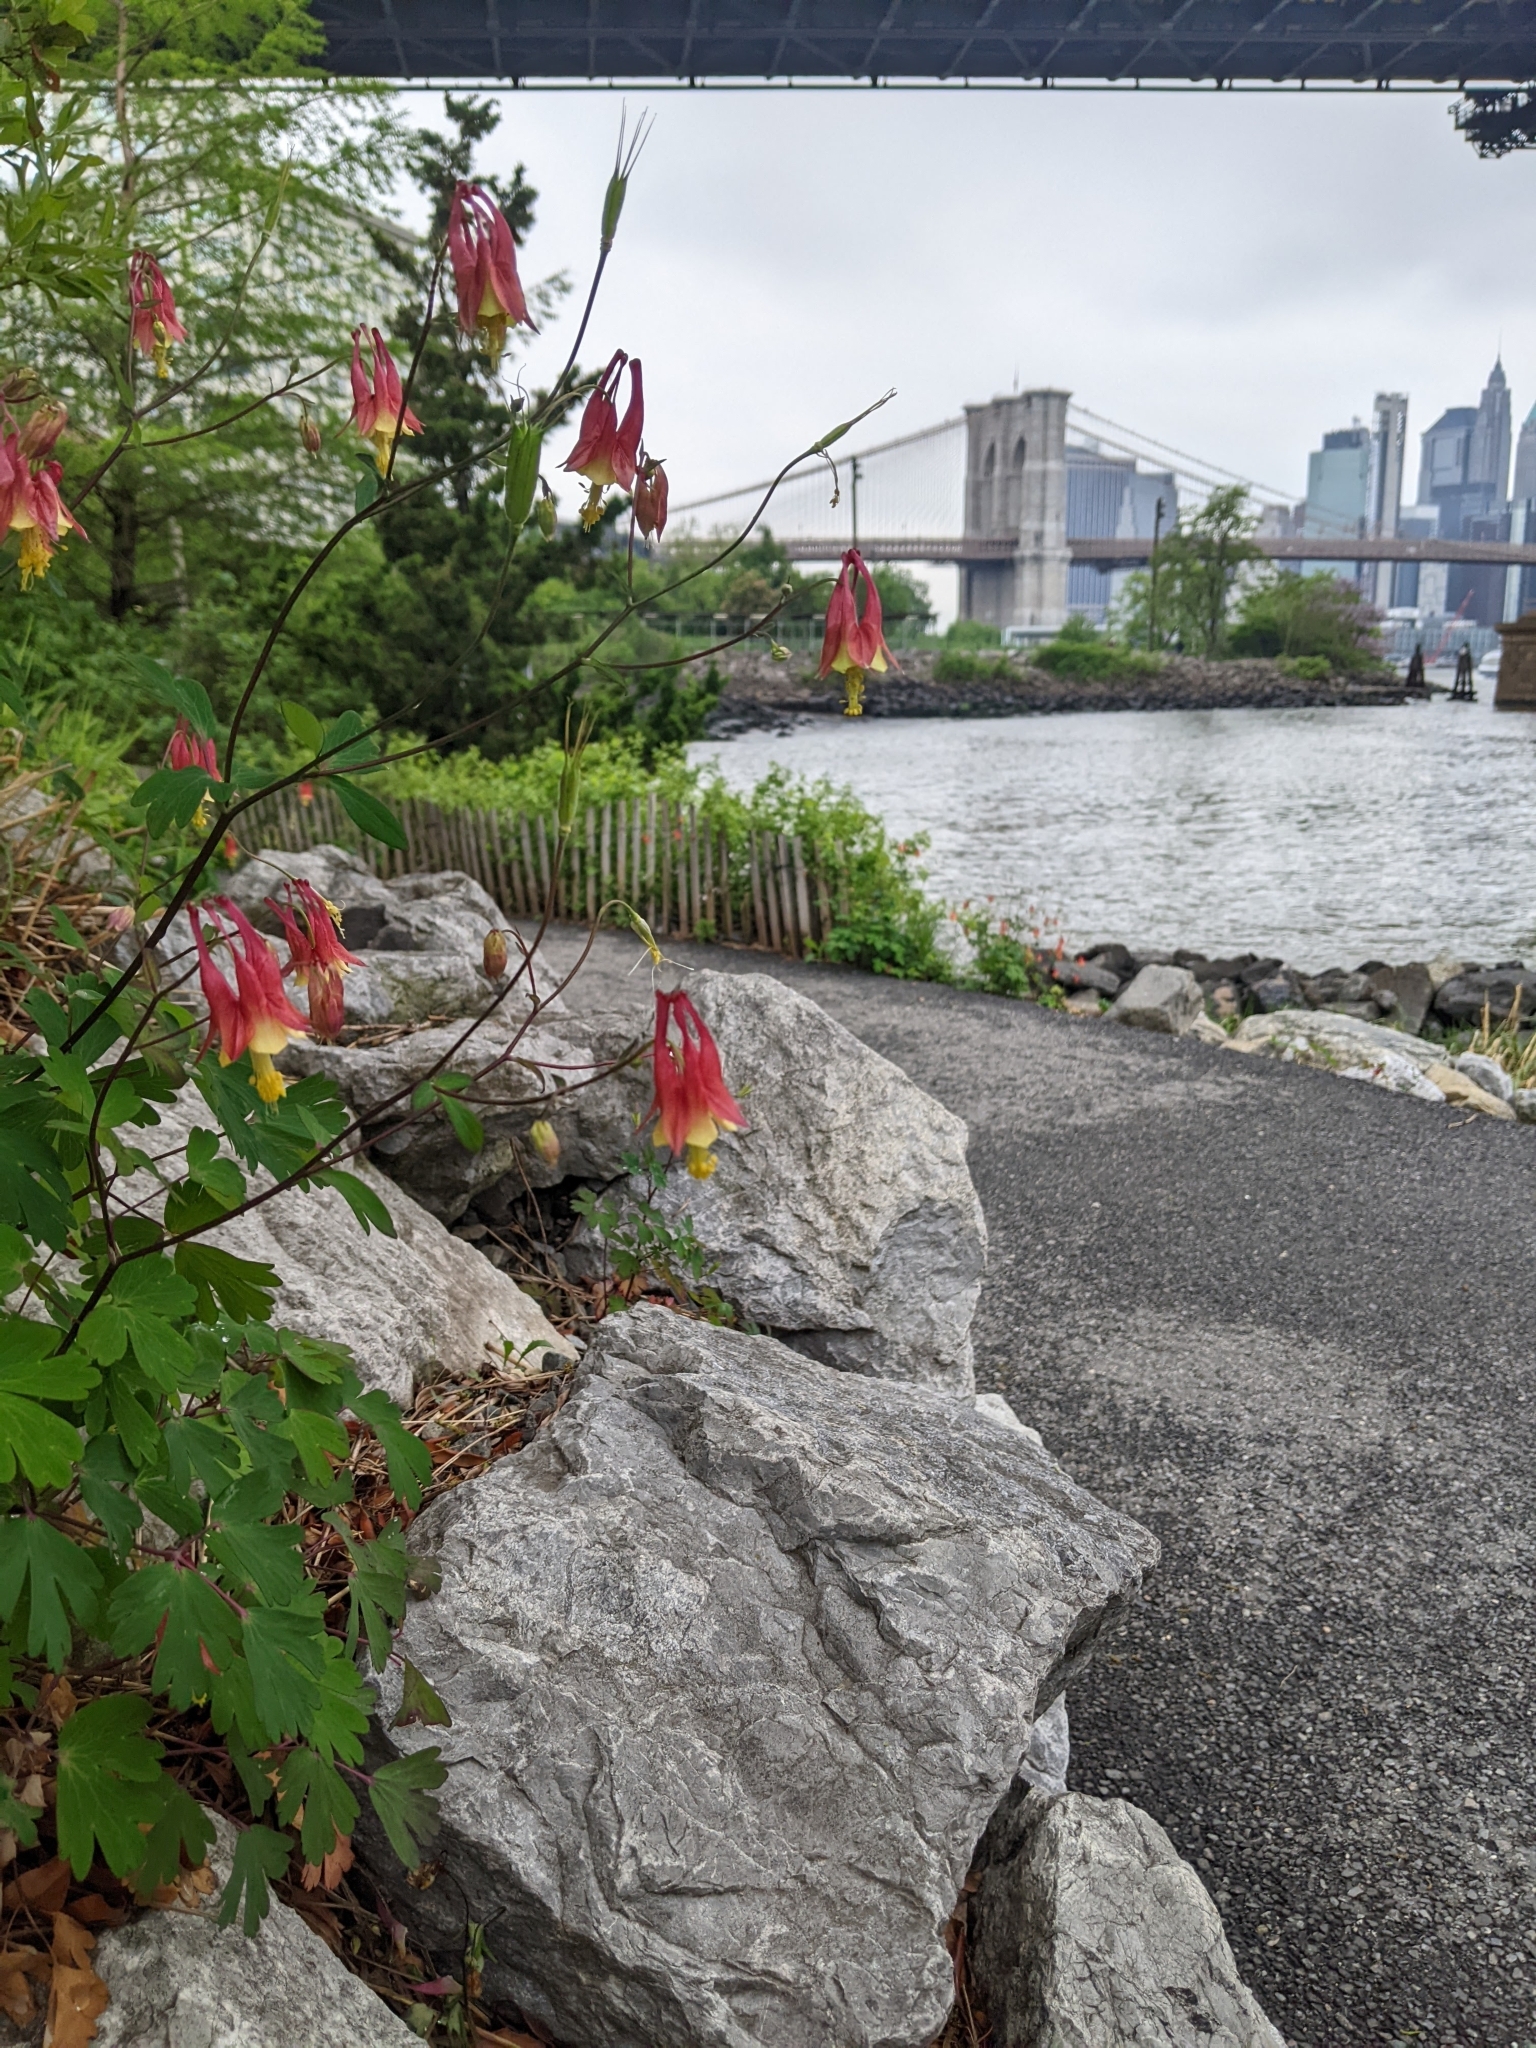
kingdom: Plantae
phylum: Tracheophyta
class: Magnoliopsida
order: Ranunculales
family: Ranunculaceae
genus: Aquilegia
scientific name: Aquilegia canadensis
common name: American columbine
